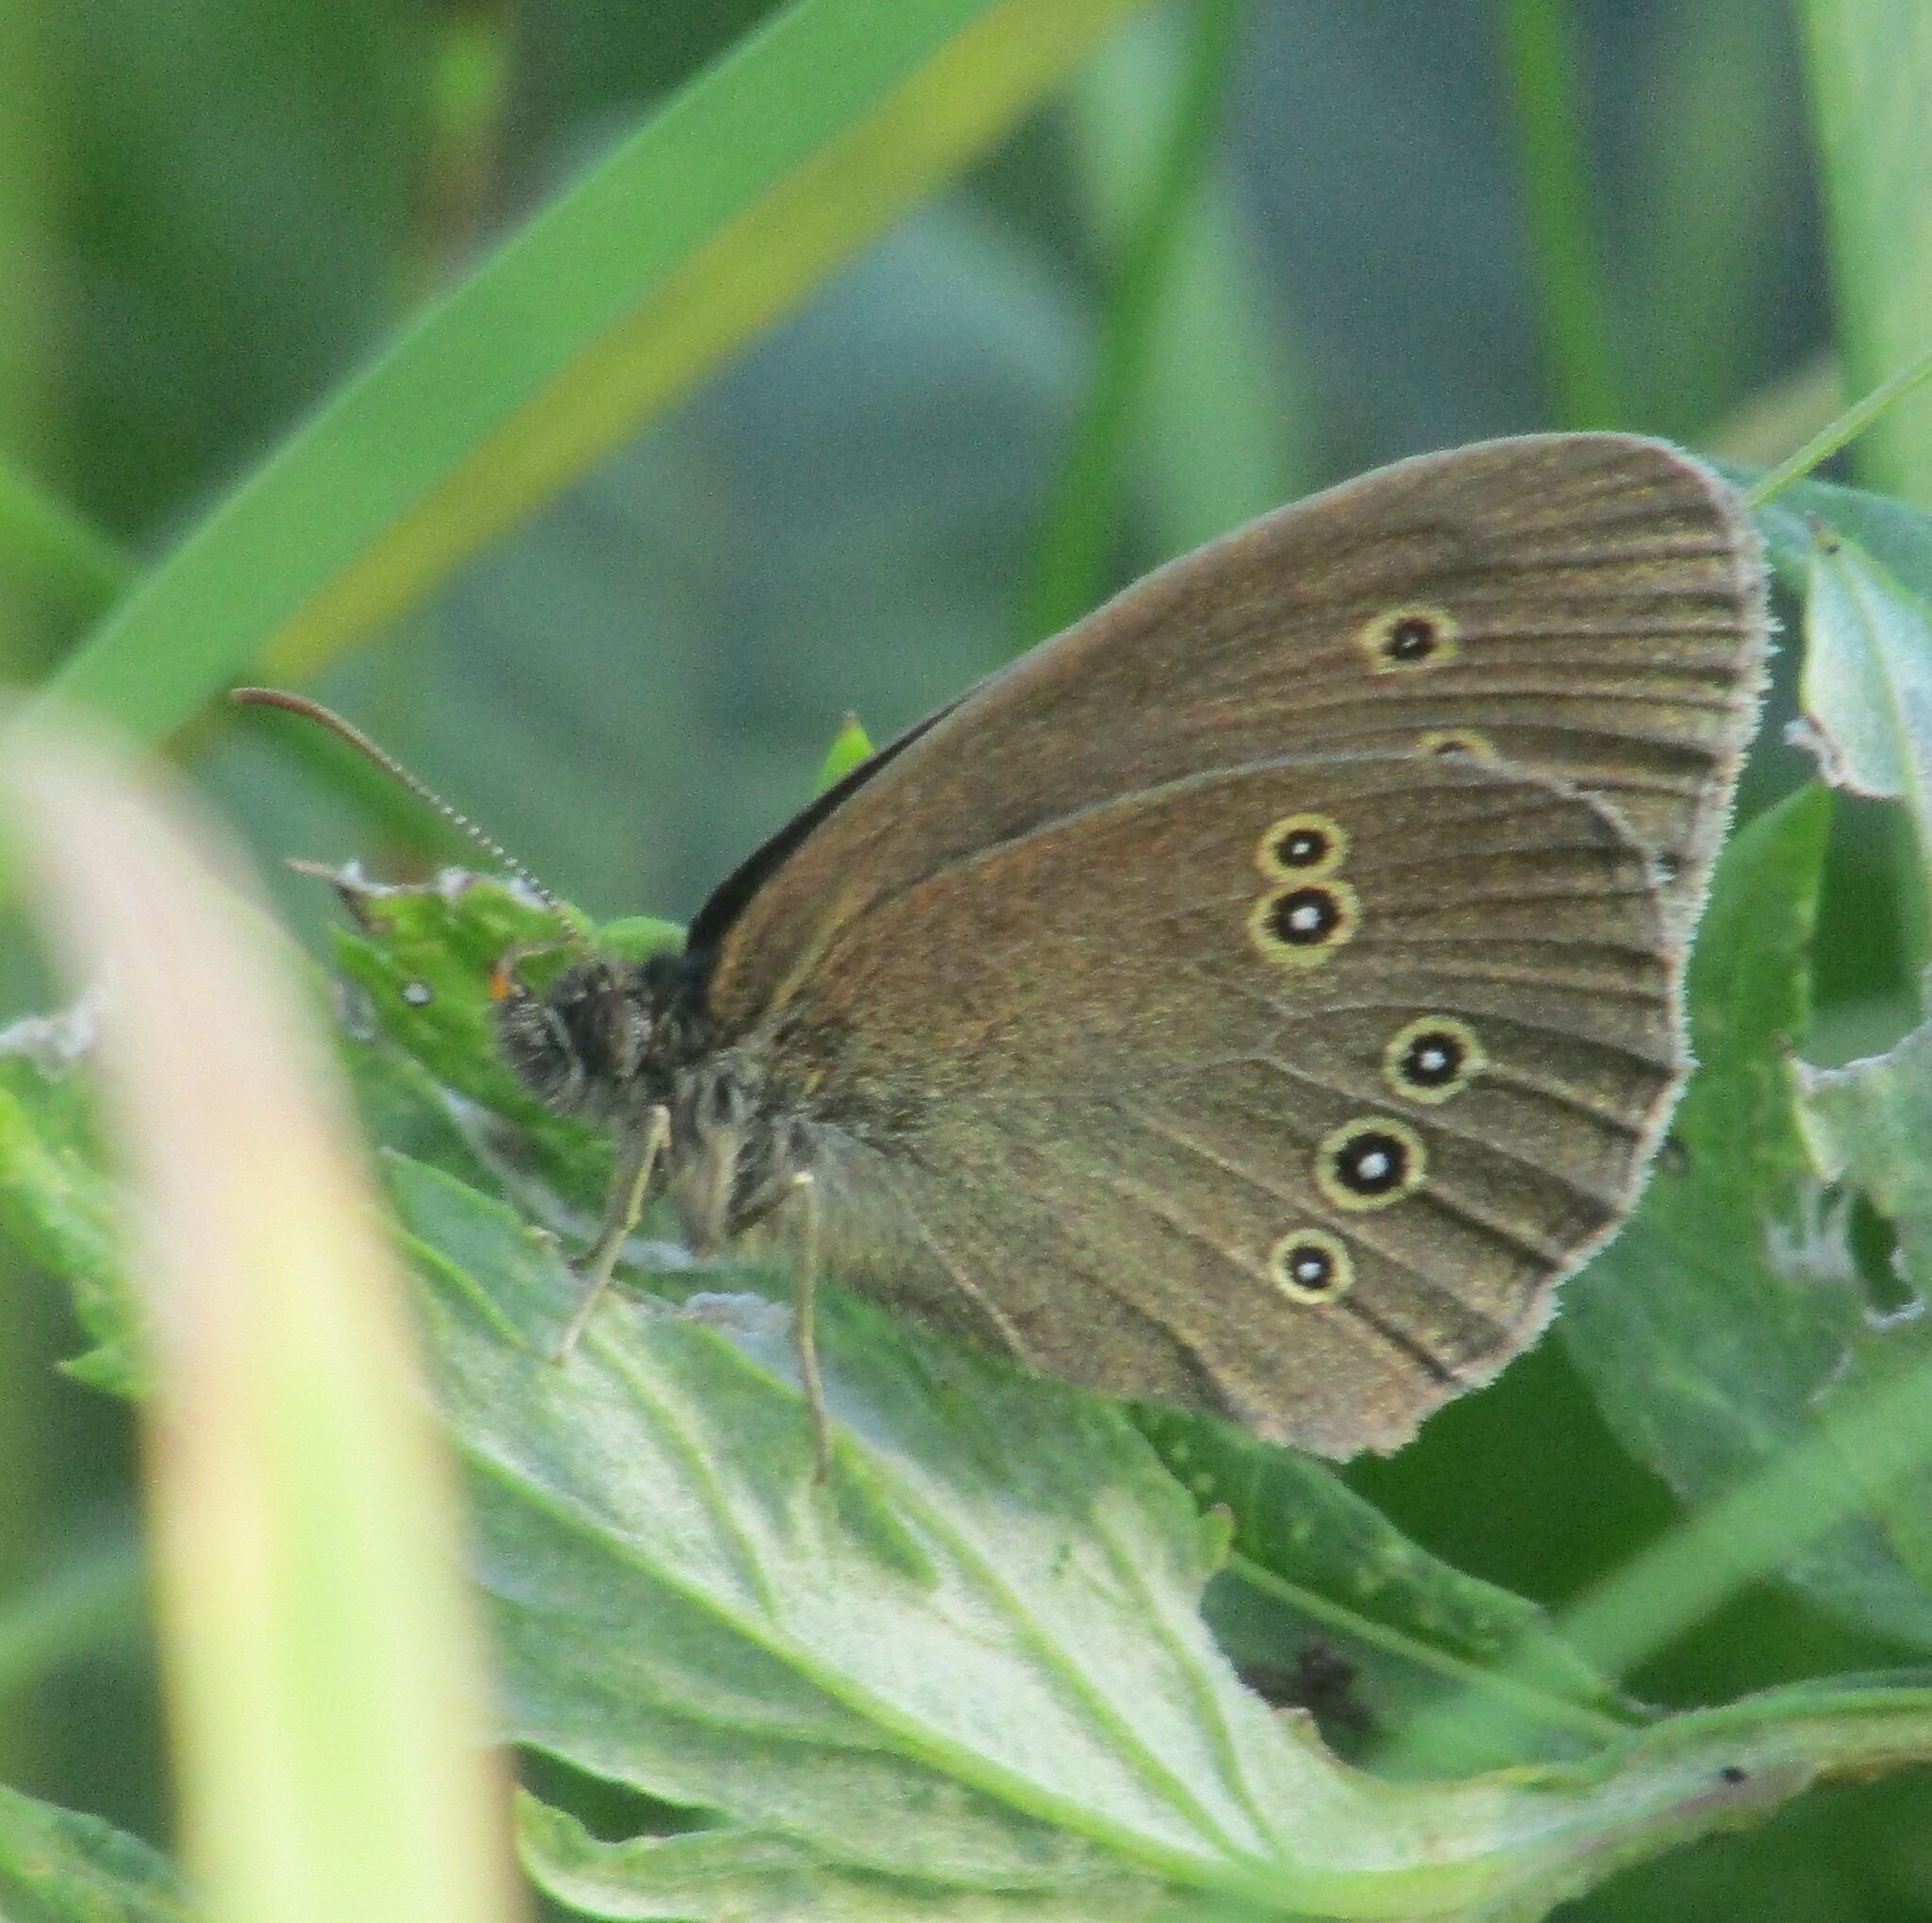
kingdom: Animalia
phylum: Arthropoda
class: Insecta
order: Lepidoptera
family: Nymphalidae
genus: Aphantopus
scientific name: Aphantopus hyperantus
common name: Ringlet
